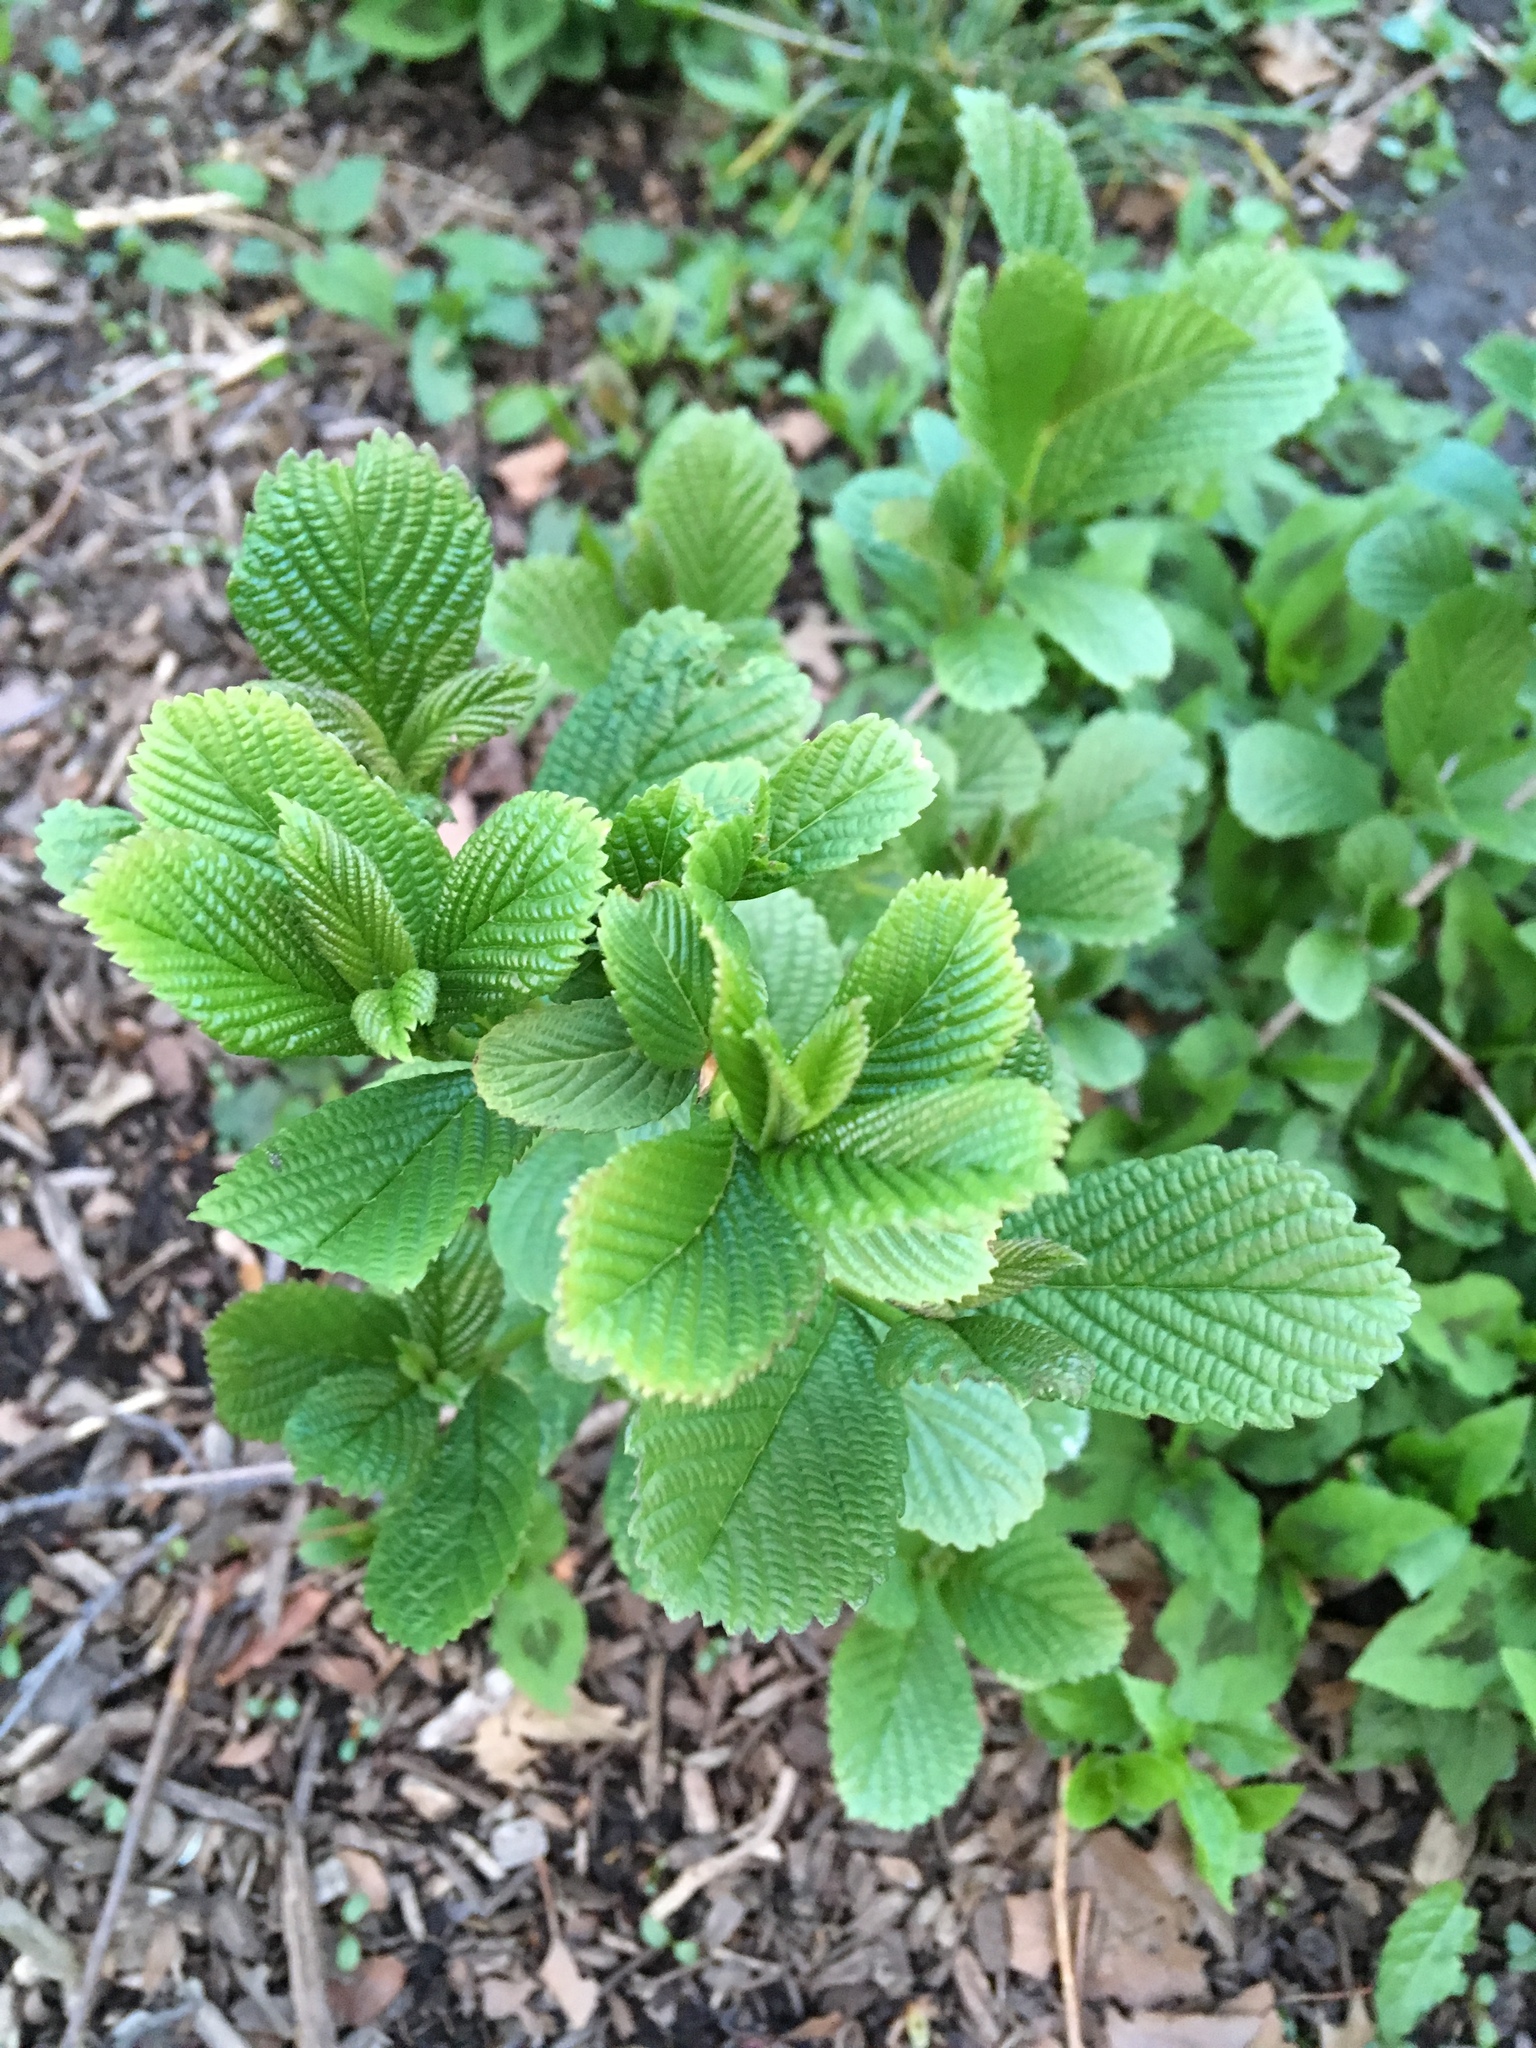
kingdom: Plantae
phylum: Tracheophyta
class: Magnoliopsida
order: Dipsacales
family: Viburnaceae
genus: Viburnum
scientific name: Viburnum sieboldii
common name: Siebold's arrowwood
